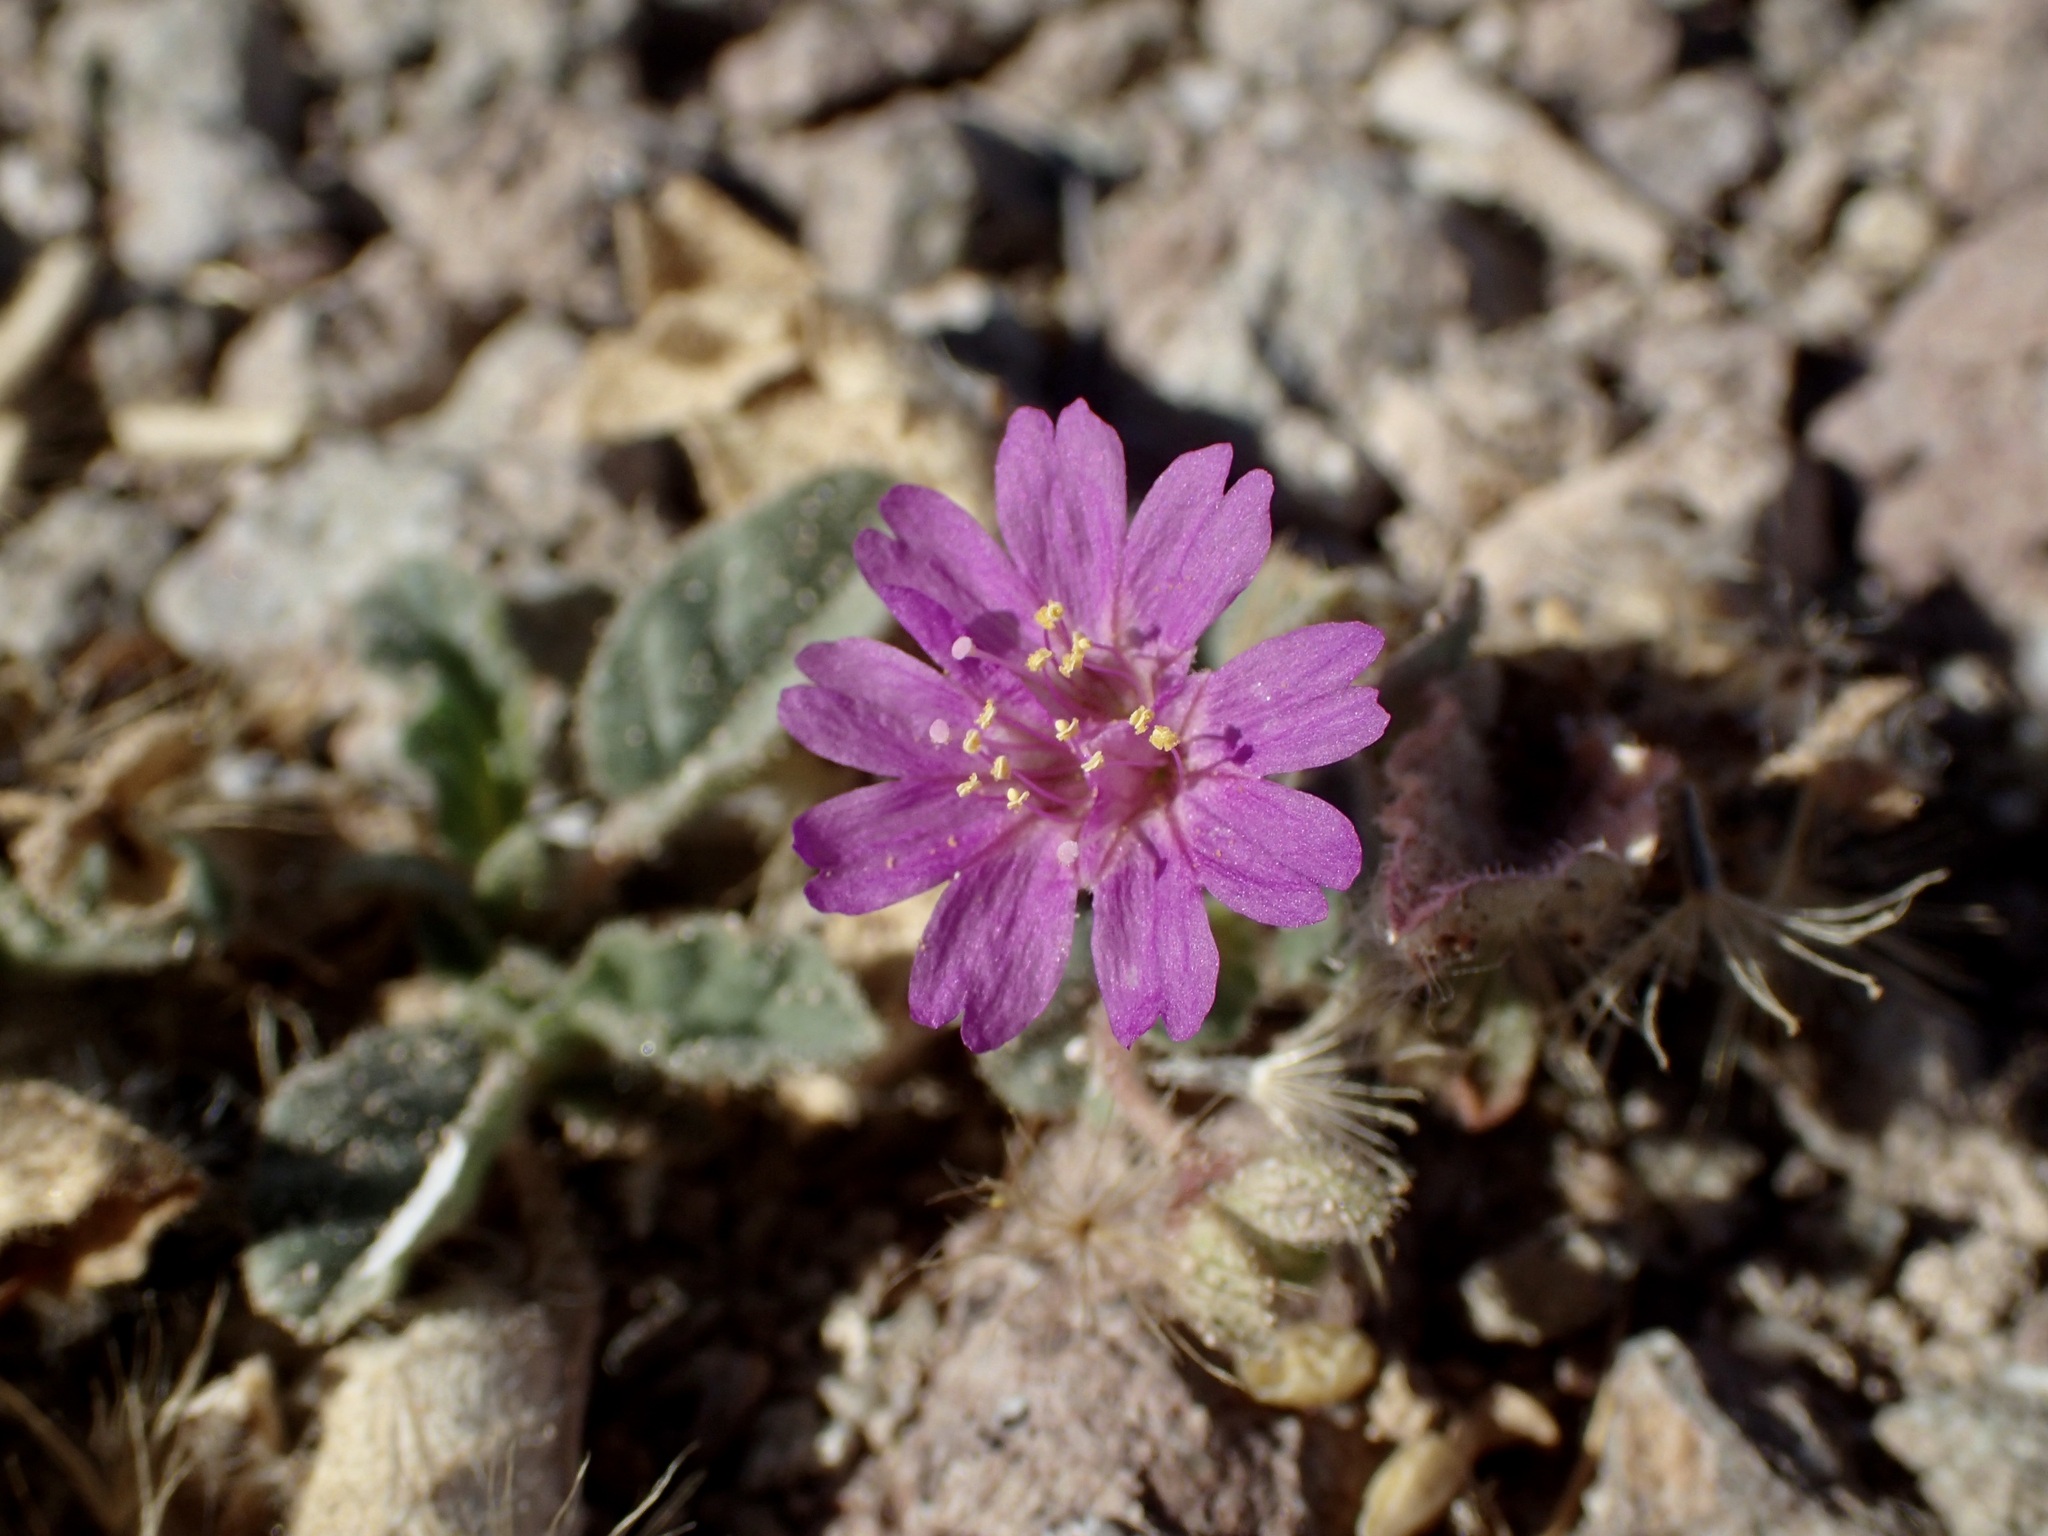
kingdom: Plantae
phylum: Tracheophyta
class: Magnoliopsida
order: Caryophyllales
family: Nyctaginaceae
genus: Allionia
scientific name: Allionia incarnata
